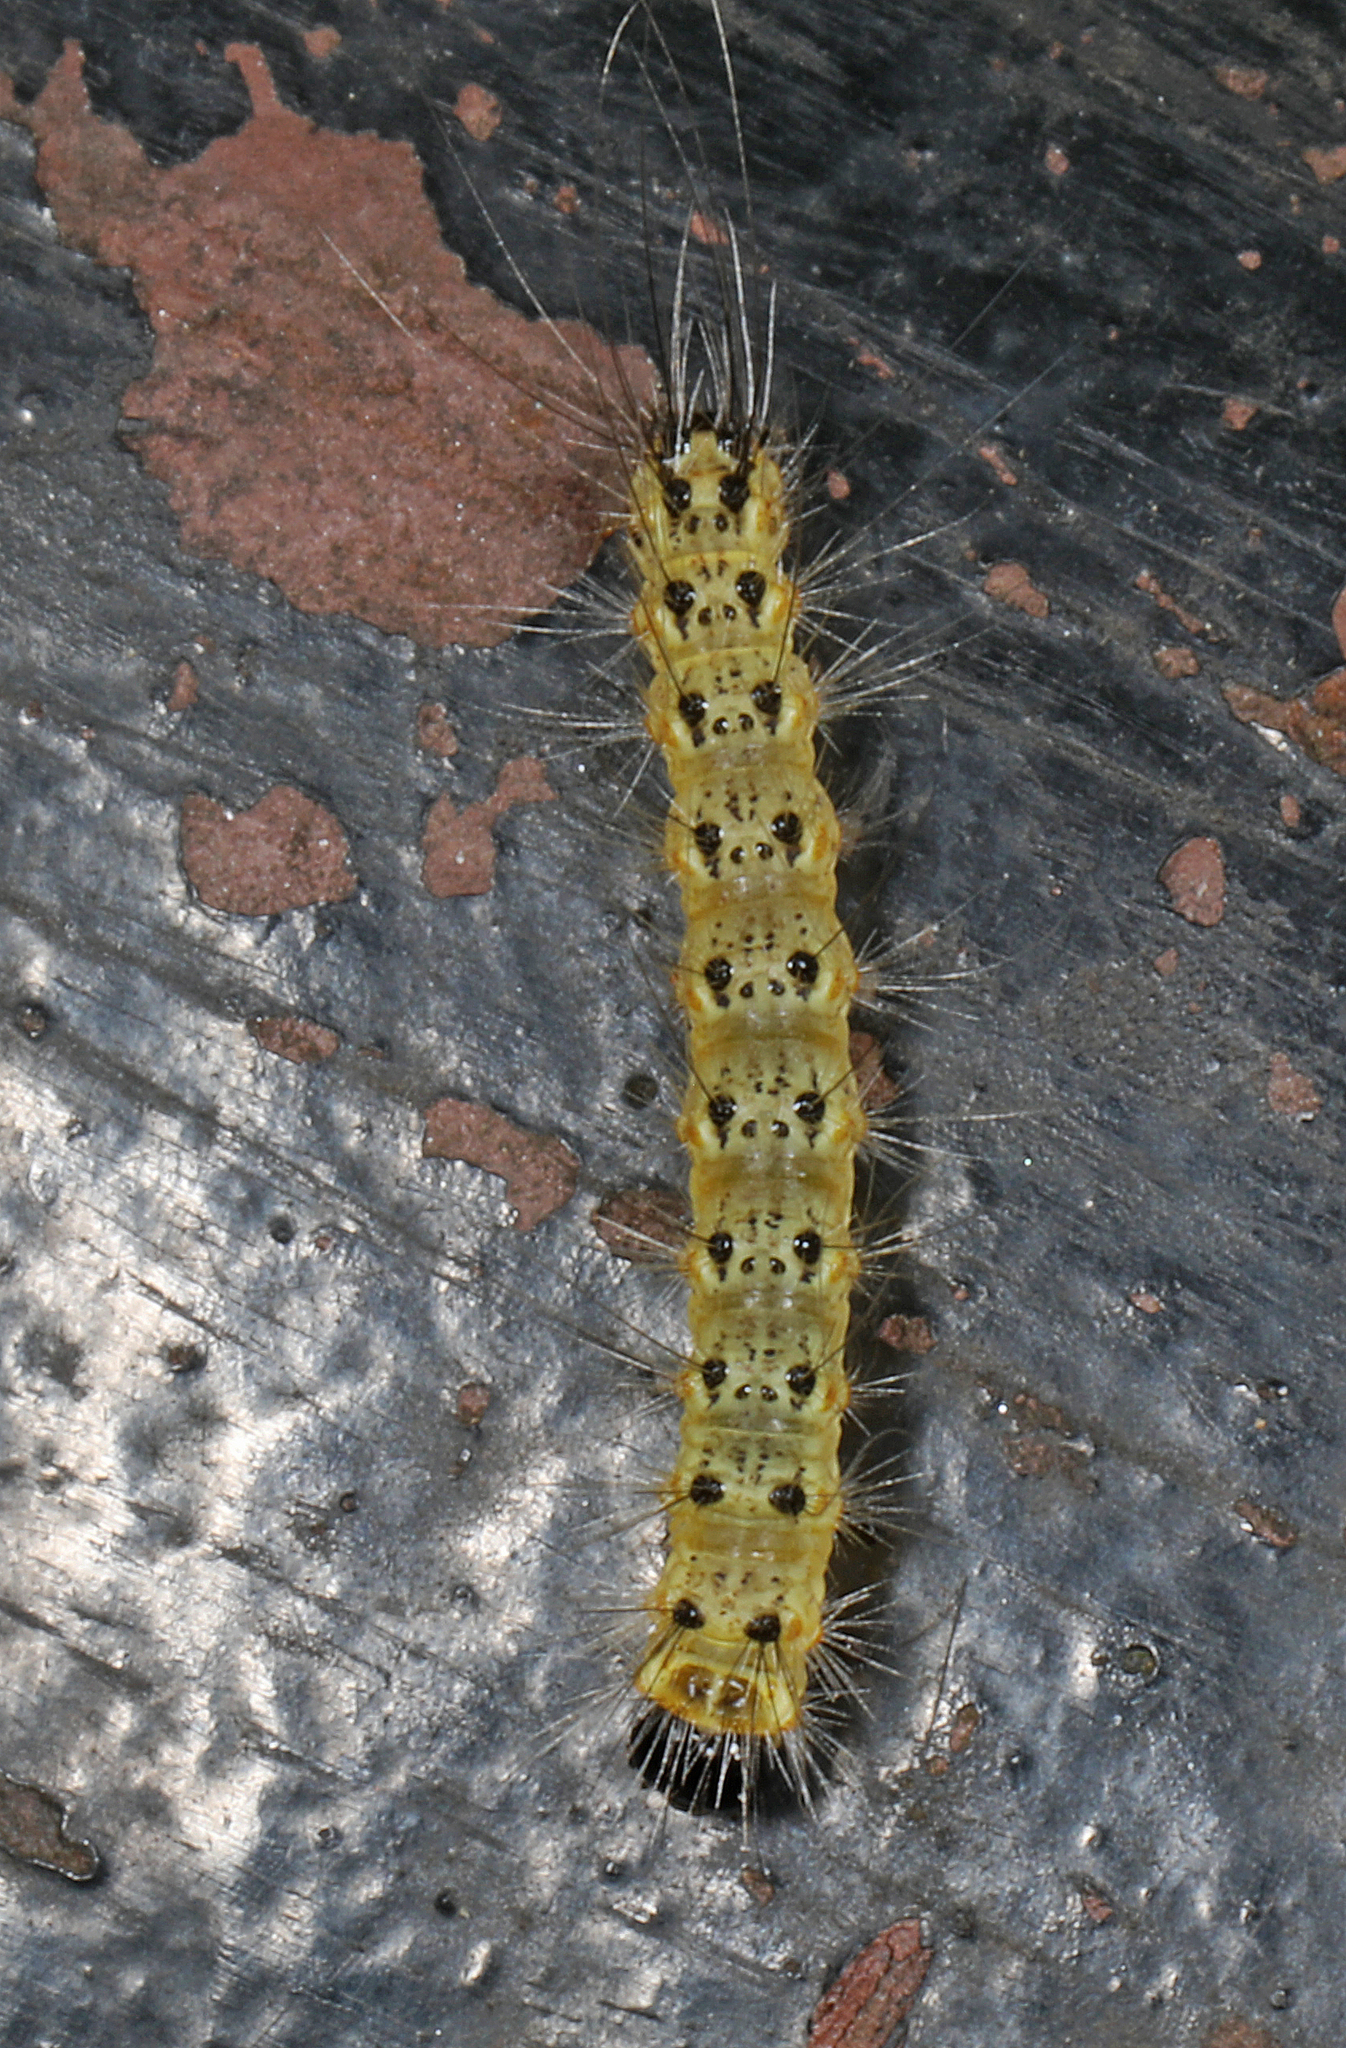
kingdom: Animalia
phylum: Arthropoda
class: Insecta
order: Lepidoptera
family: Erebidae
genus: Hyphantria
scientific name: Hyphantria cunea
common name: American white moth
